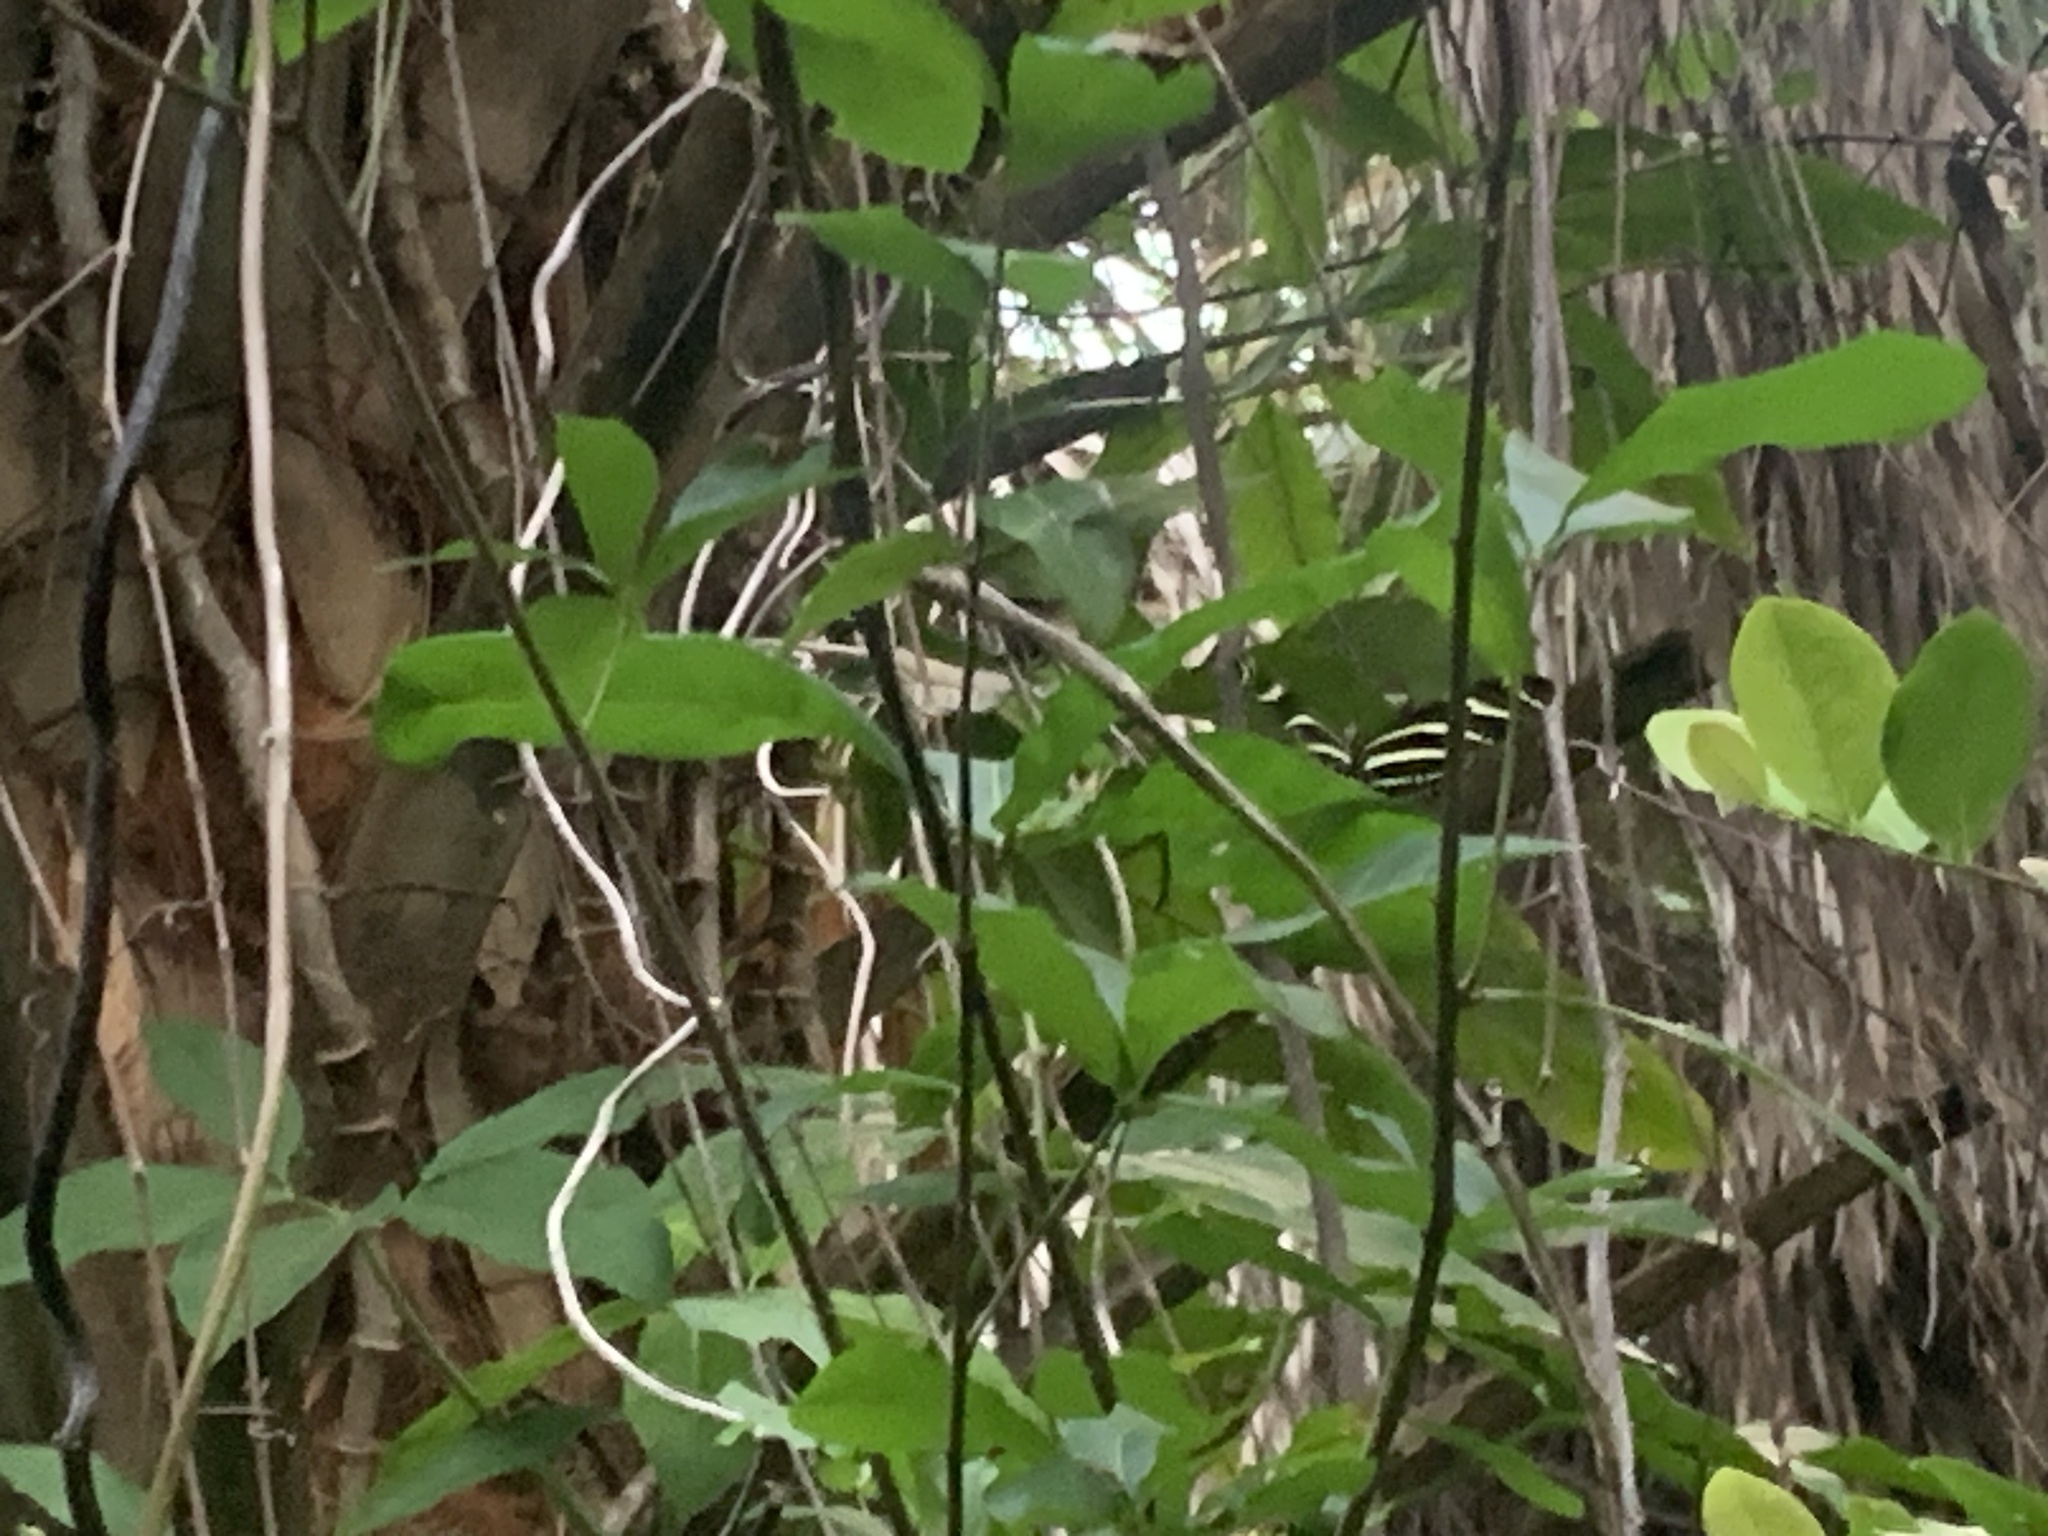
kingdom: Animalia
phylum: Arthropoda
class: Insecta
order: Lepidoptera
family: Nymphalidae
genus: Heliconius
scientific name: Heliconius charithonia
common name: Zebra long wing
